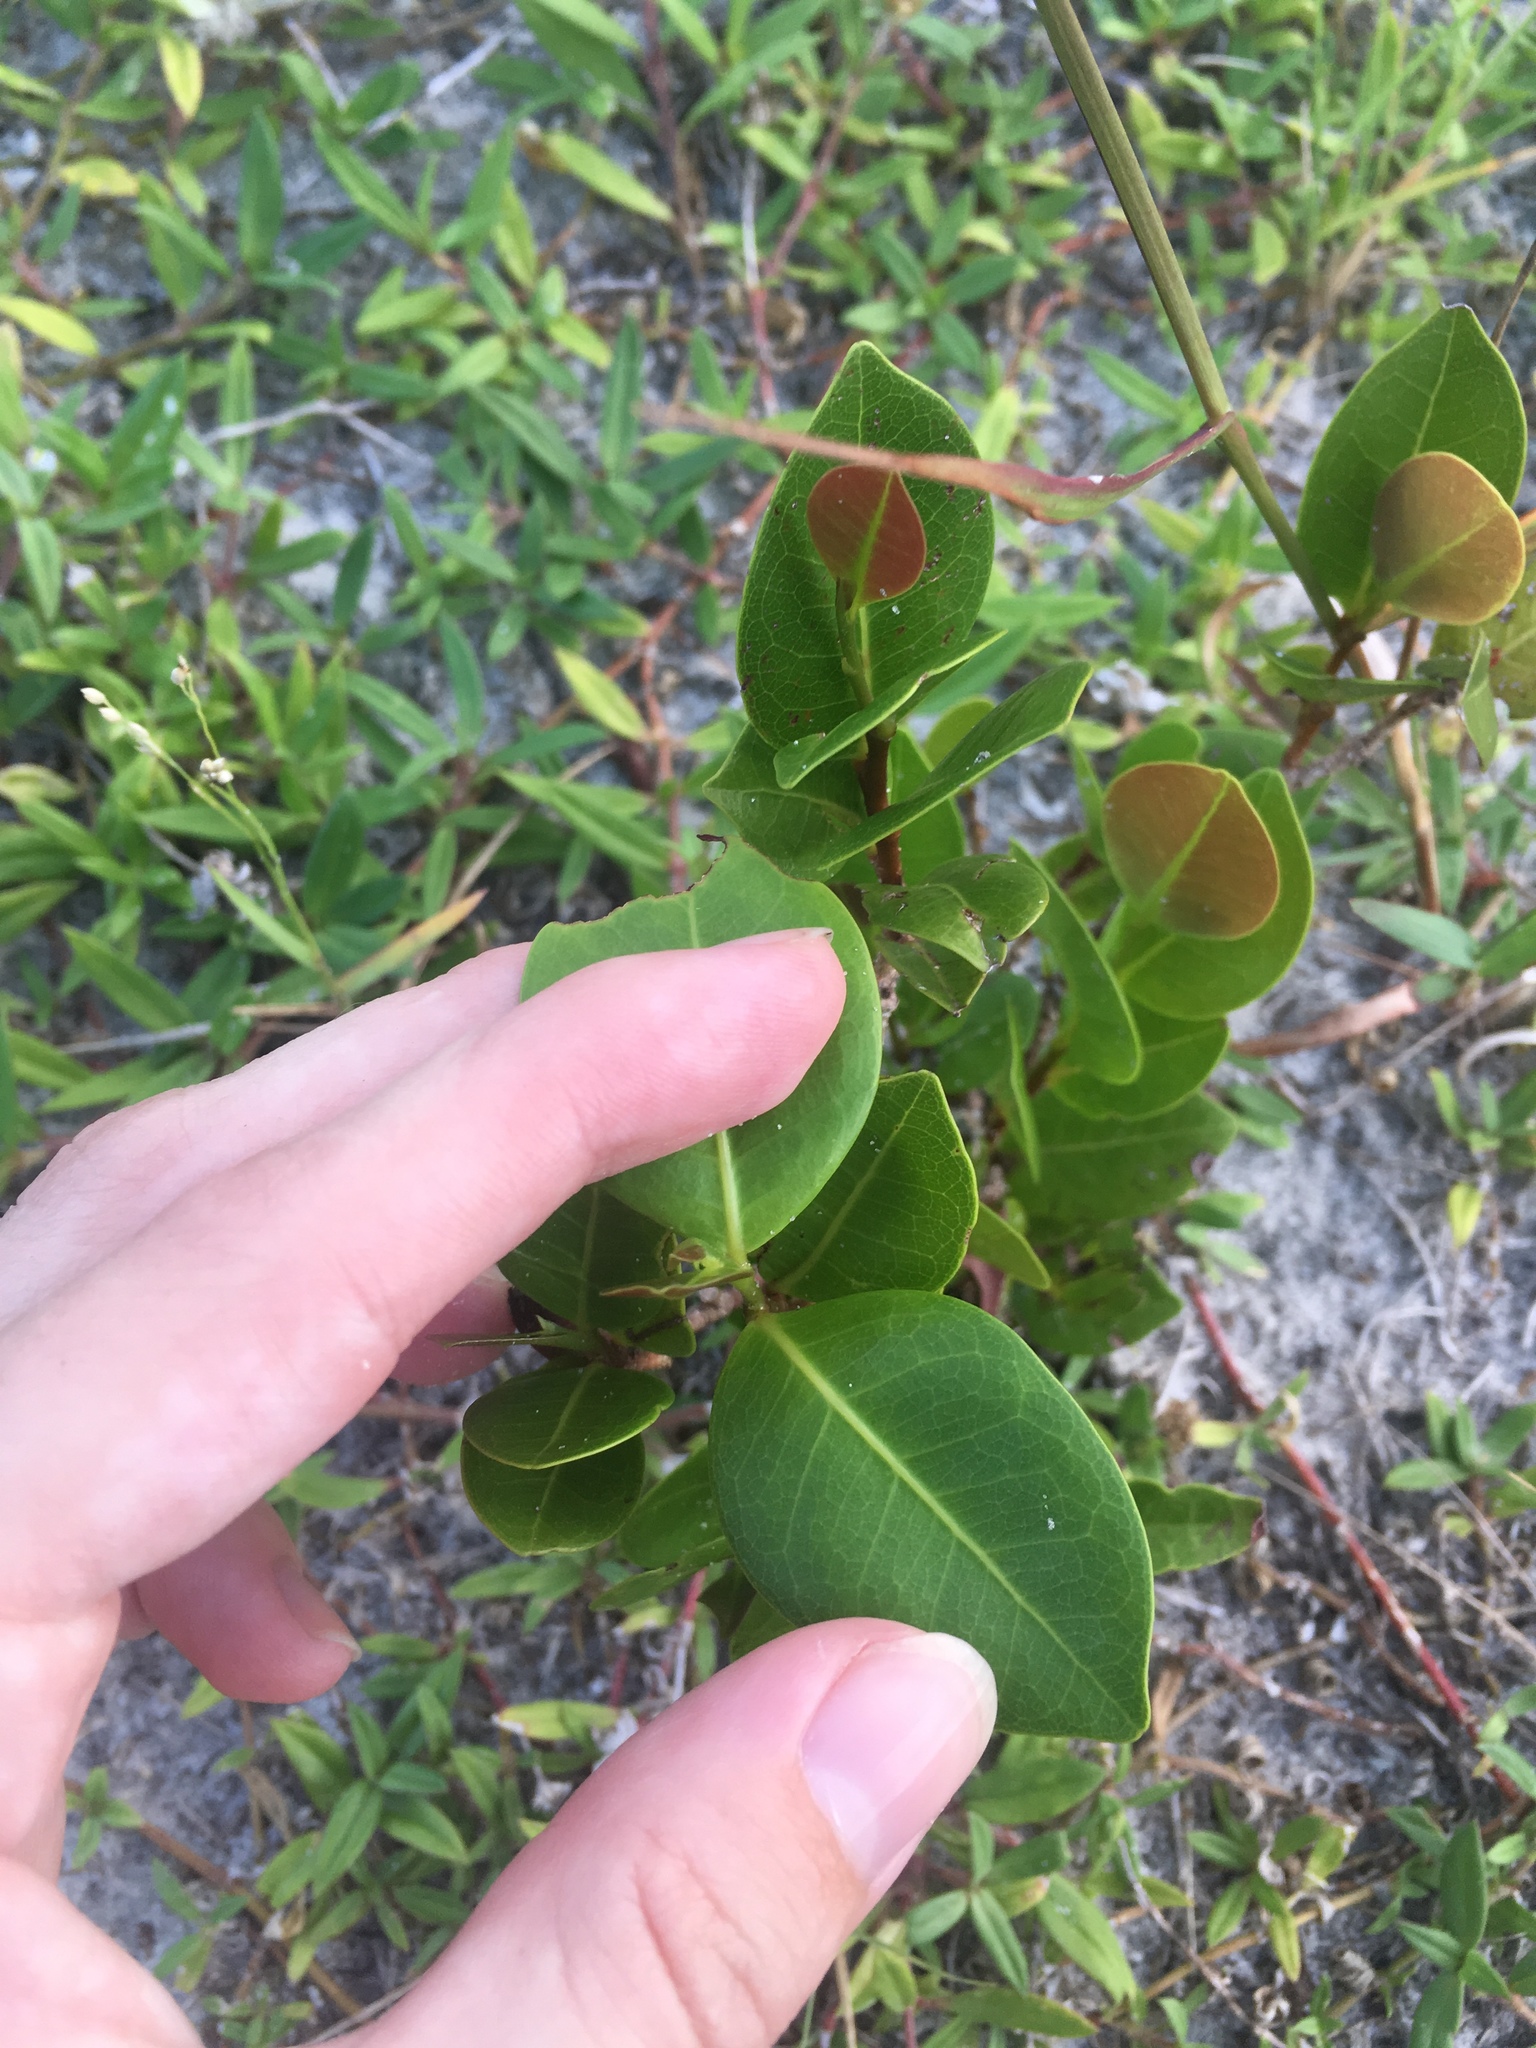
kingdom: Plantae
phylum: Tracheophyta
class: Magnoliopsida
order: Malpighiales
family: Chrysobalanaceae
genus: Chrysobalanus
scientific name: Chrysobalanus icaco
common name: Coco plum
